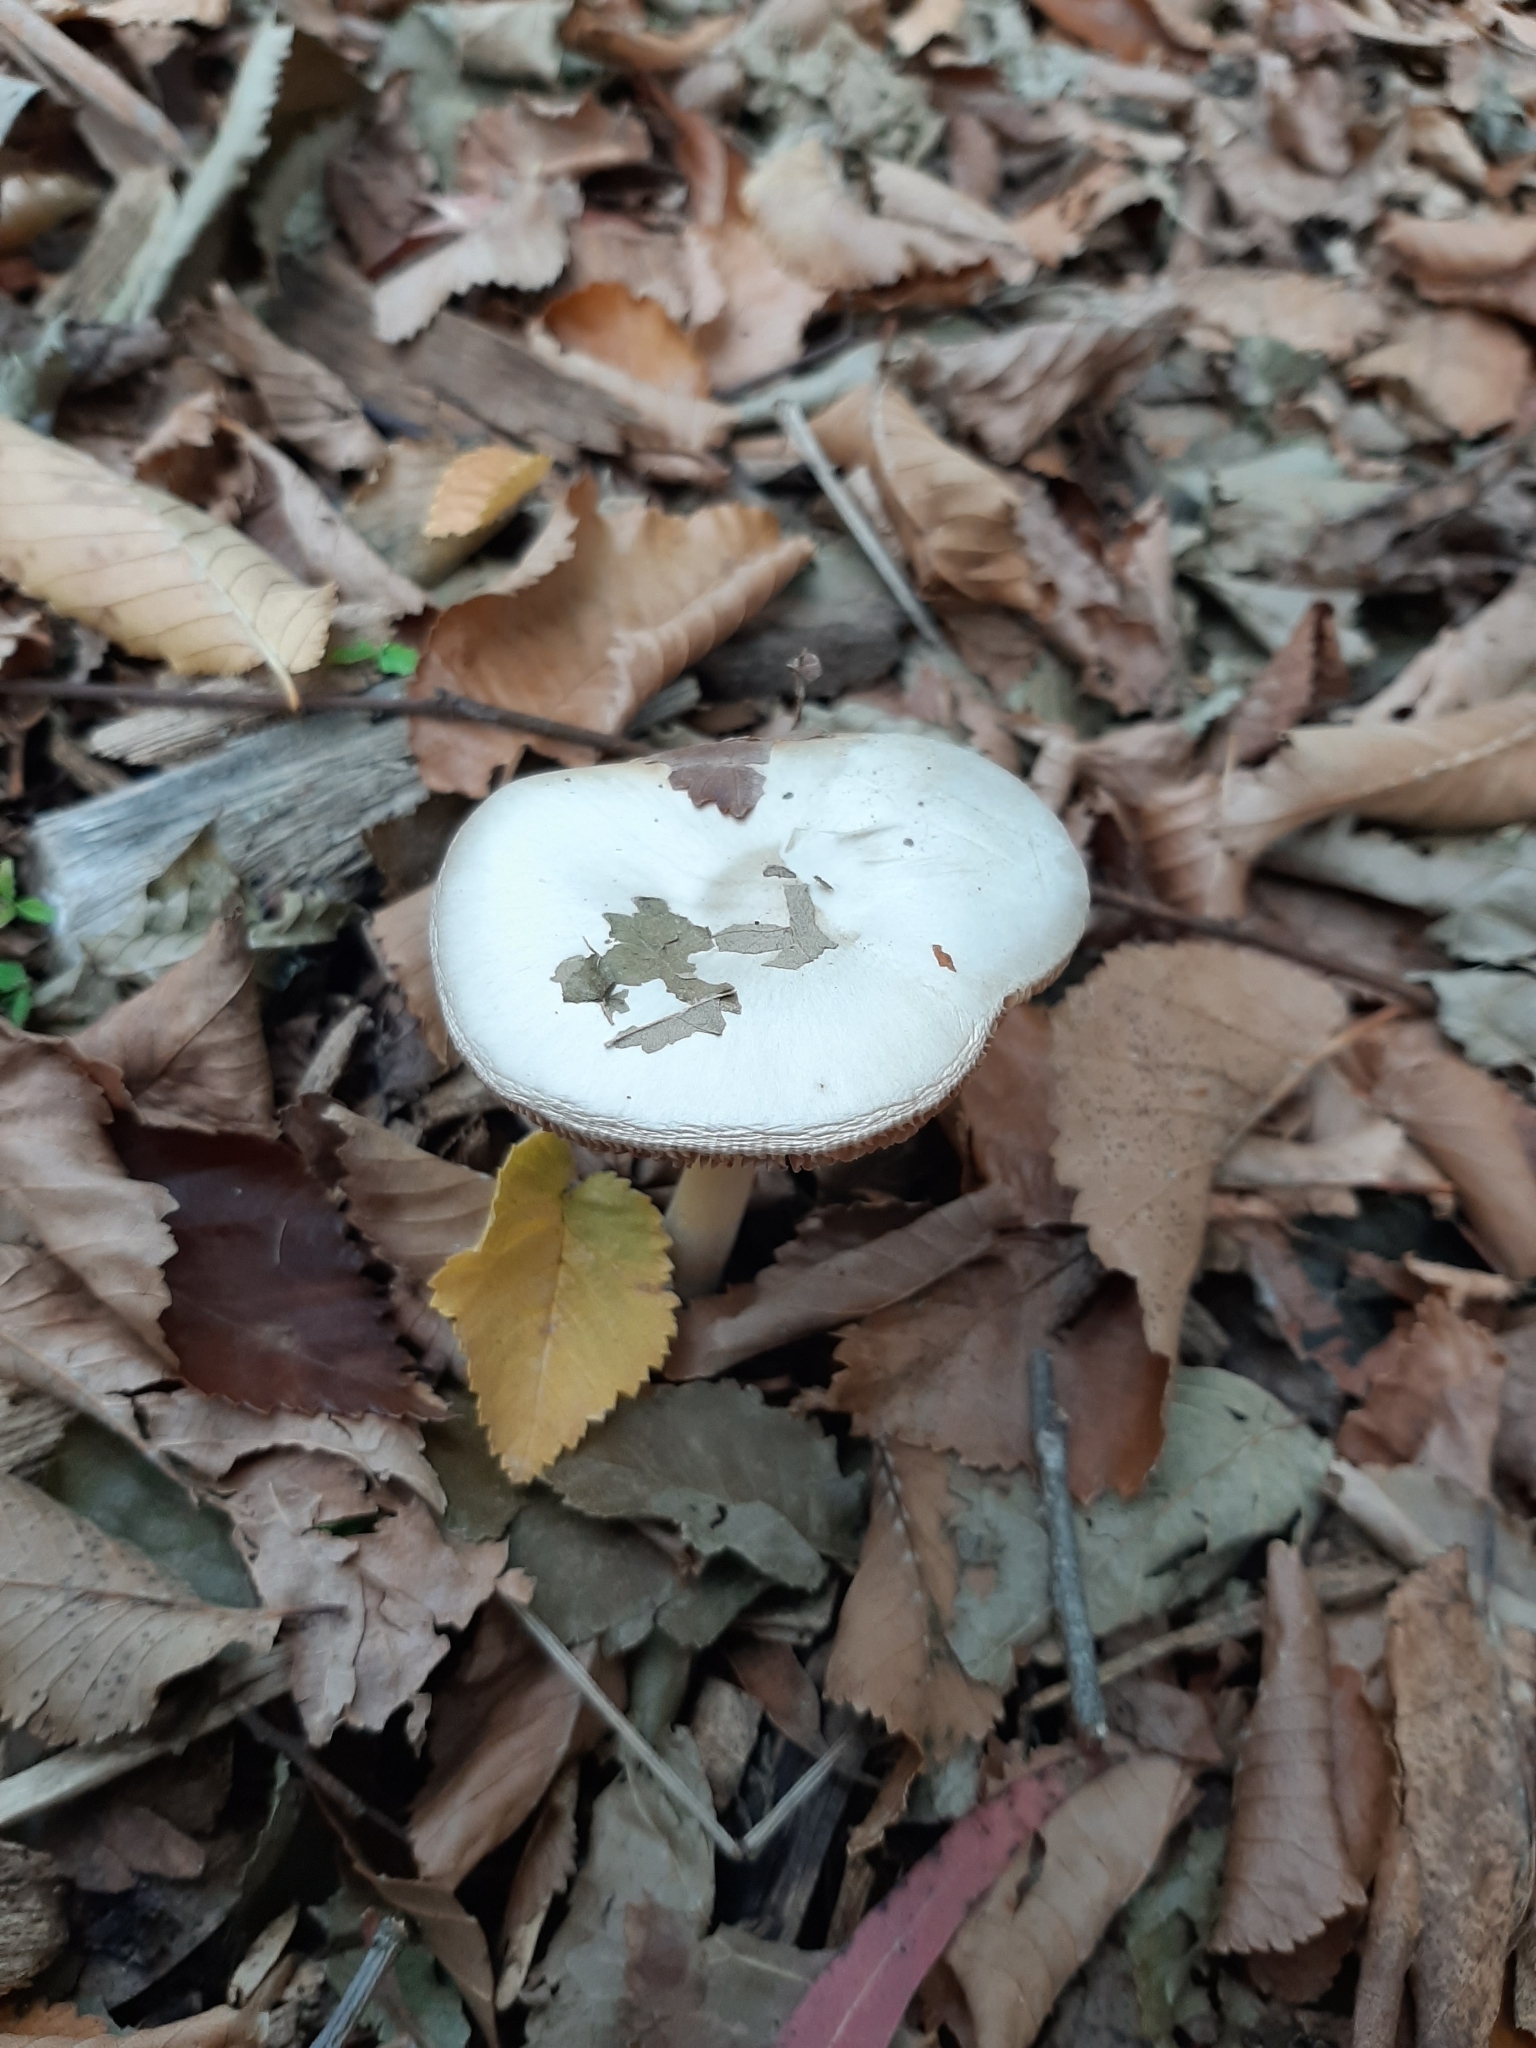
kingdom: Fungi
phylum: Basidiomycota
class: Agaricomycetes
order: Agaricales
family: Pluteaceae
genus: Volvopluteus
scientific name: Volvopluteus gloiocephalus
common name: Stubble rosegill
